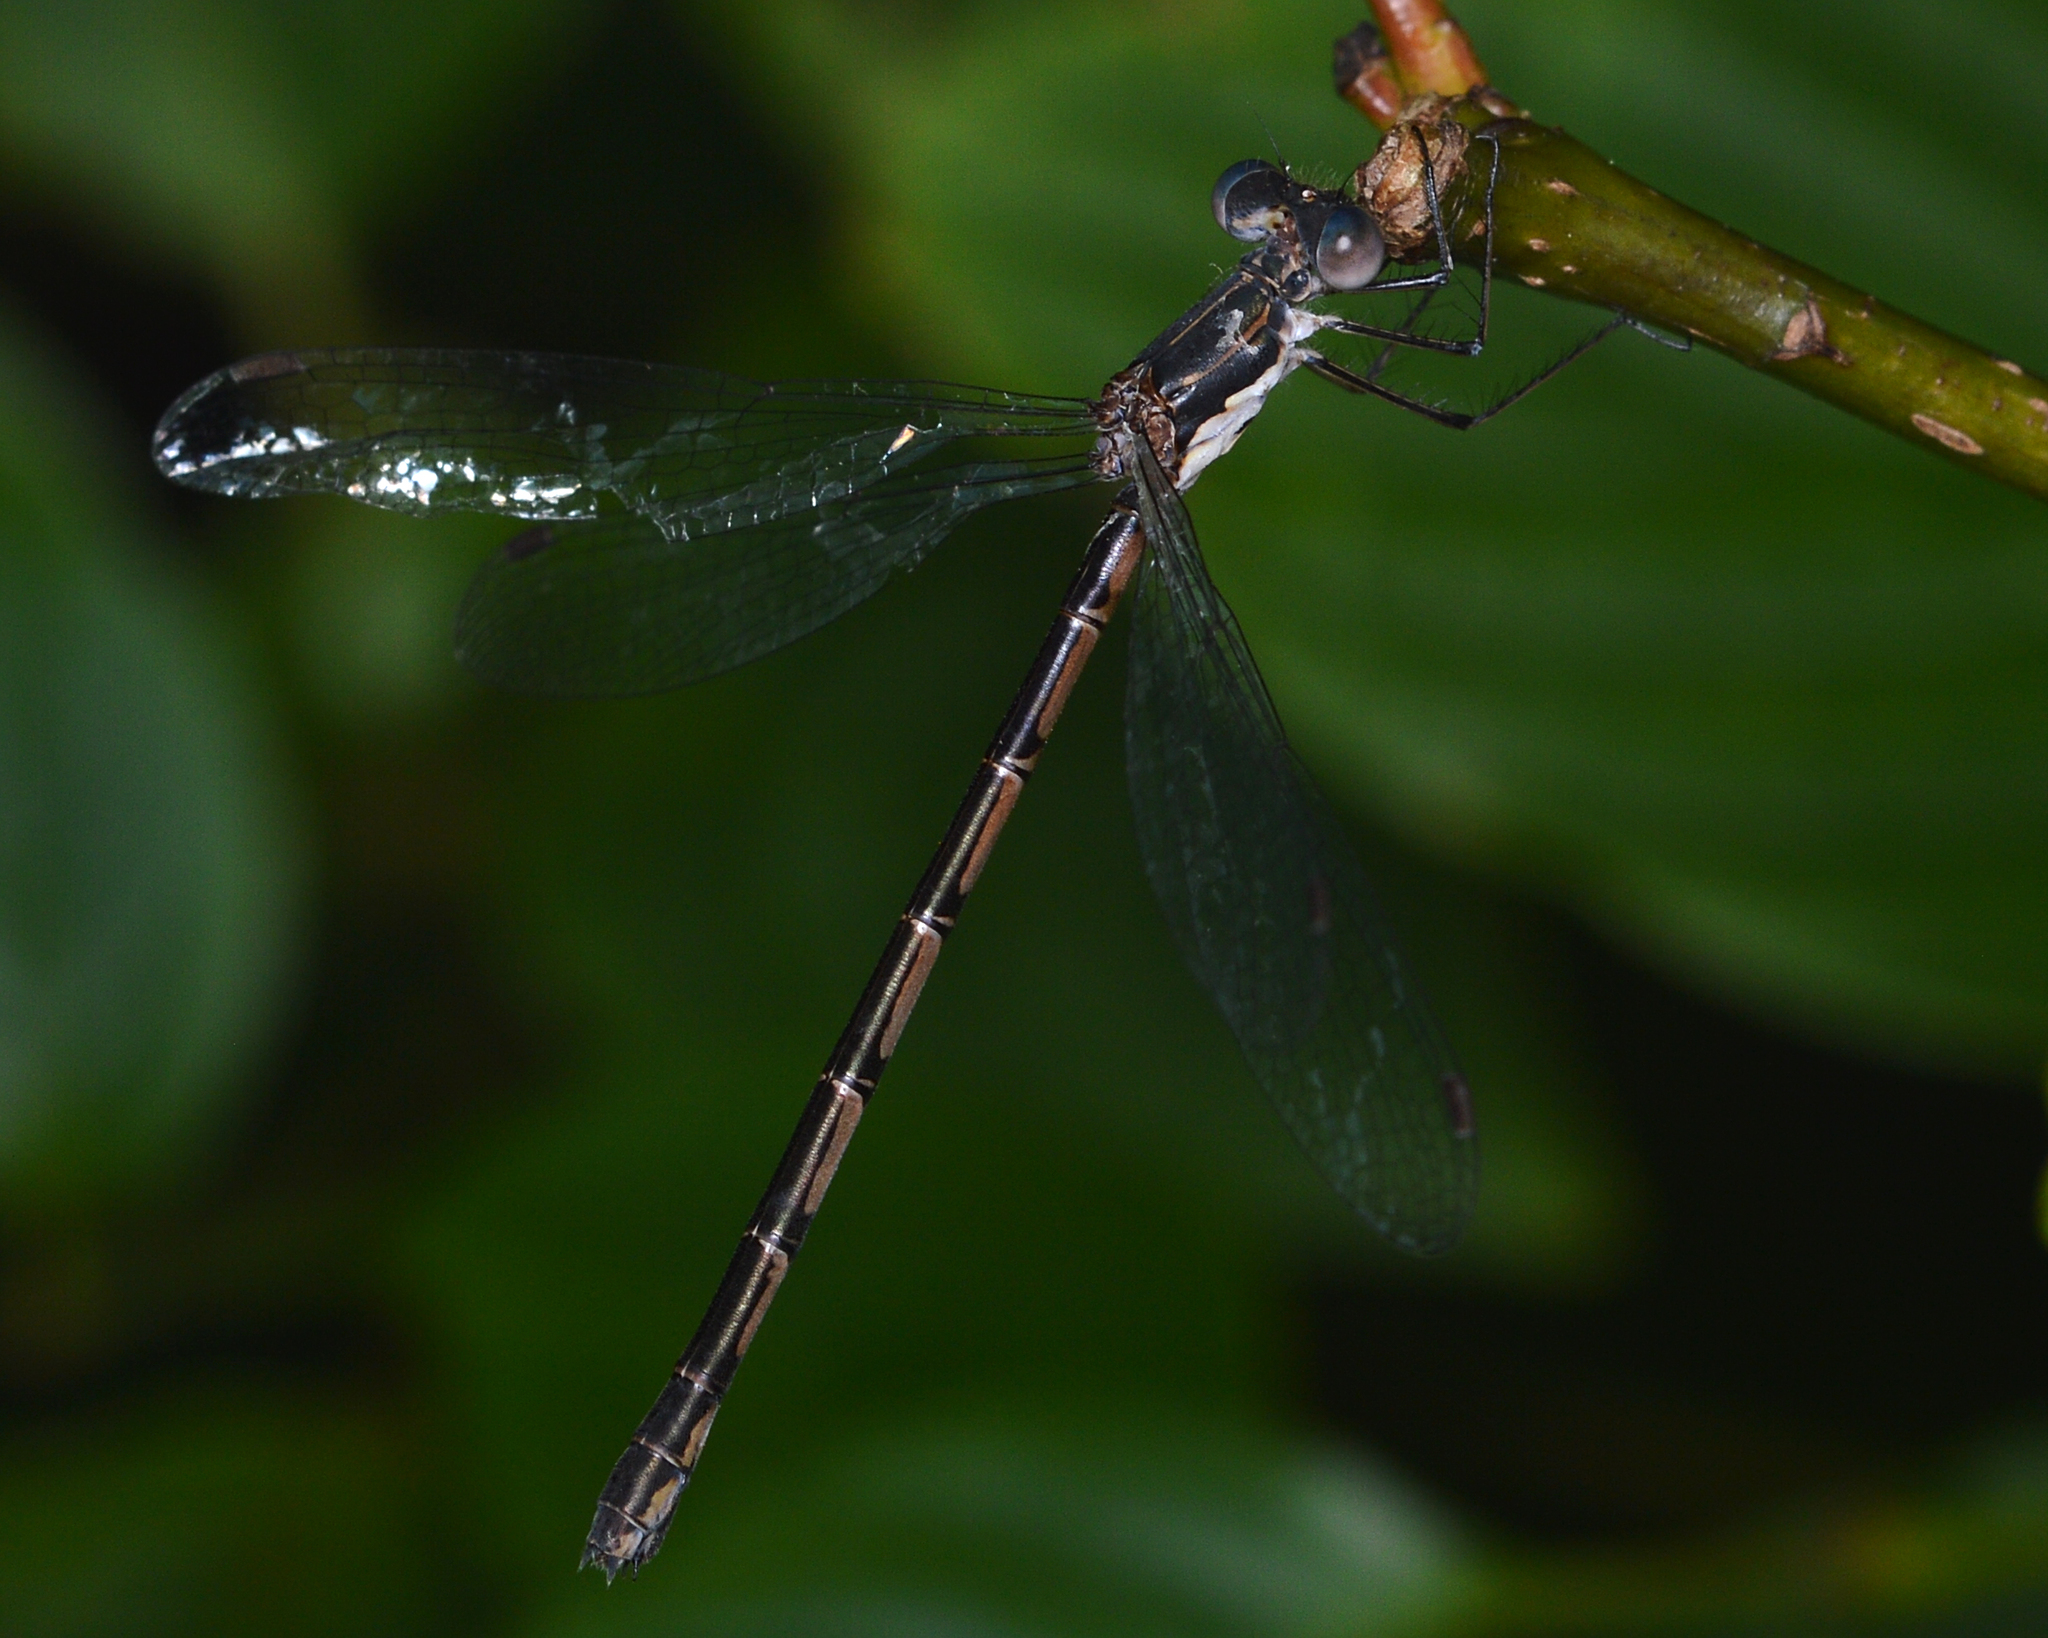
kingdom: Animalia
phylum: Arthropoda
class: Insecta
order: Odonata
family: Lestidae
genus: Lestes
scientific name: Lestes congener
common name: Spotted spreadwing
